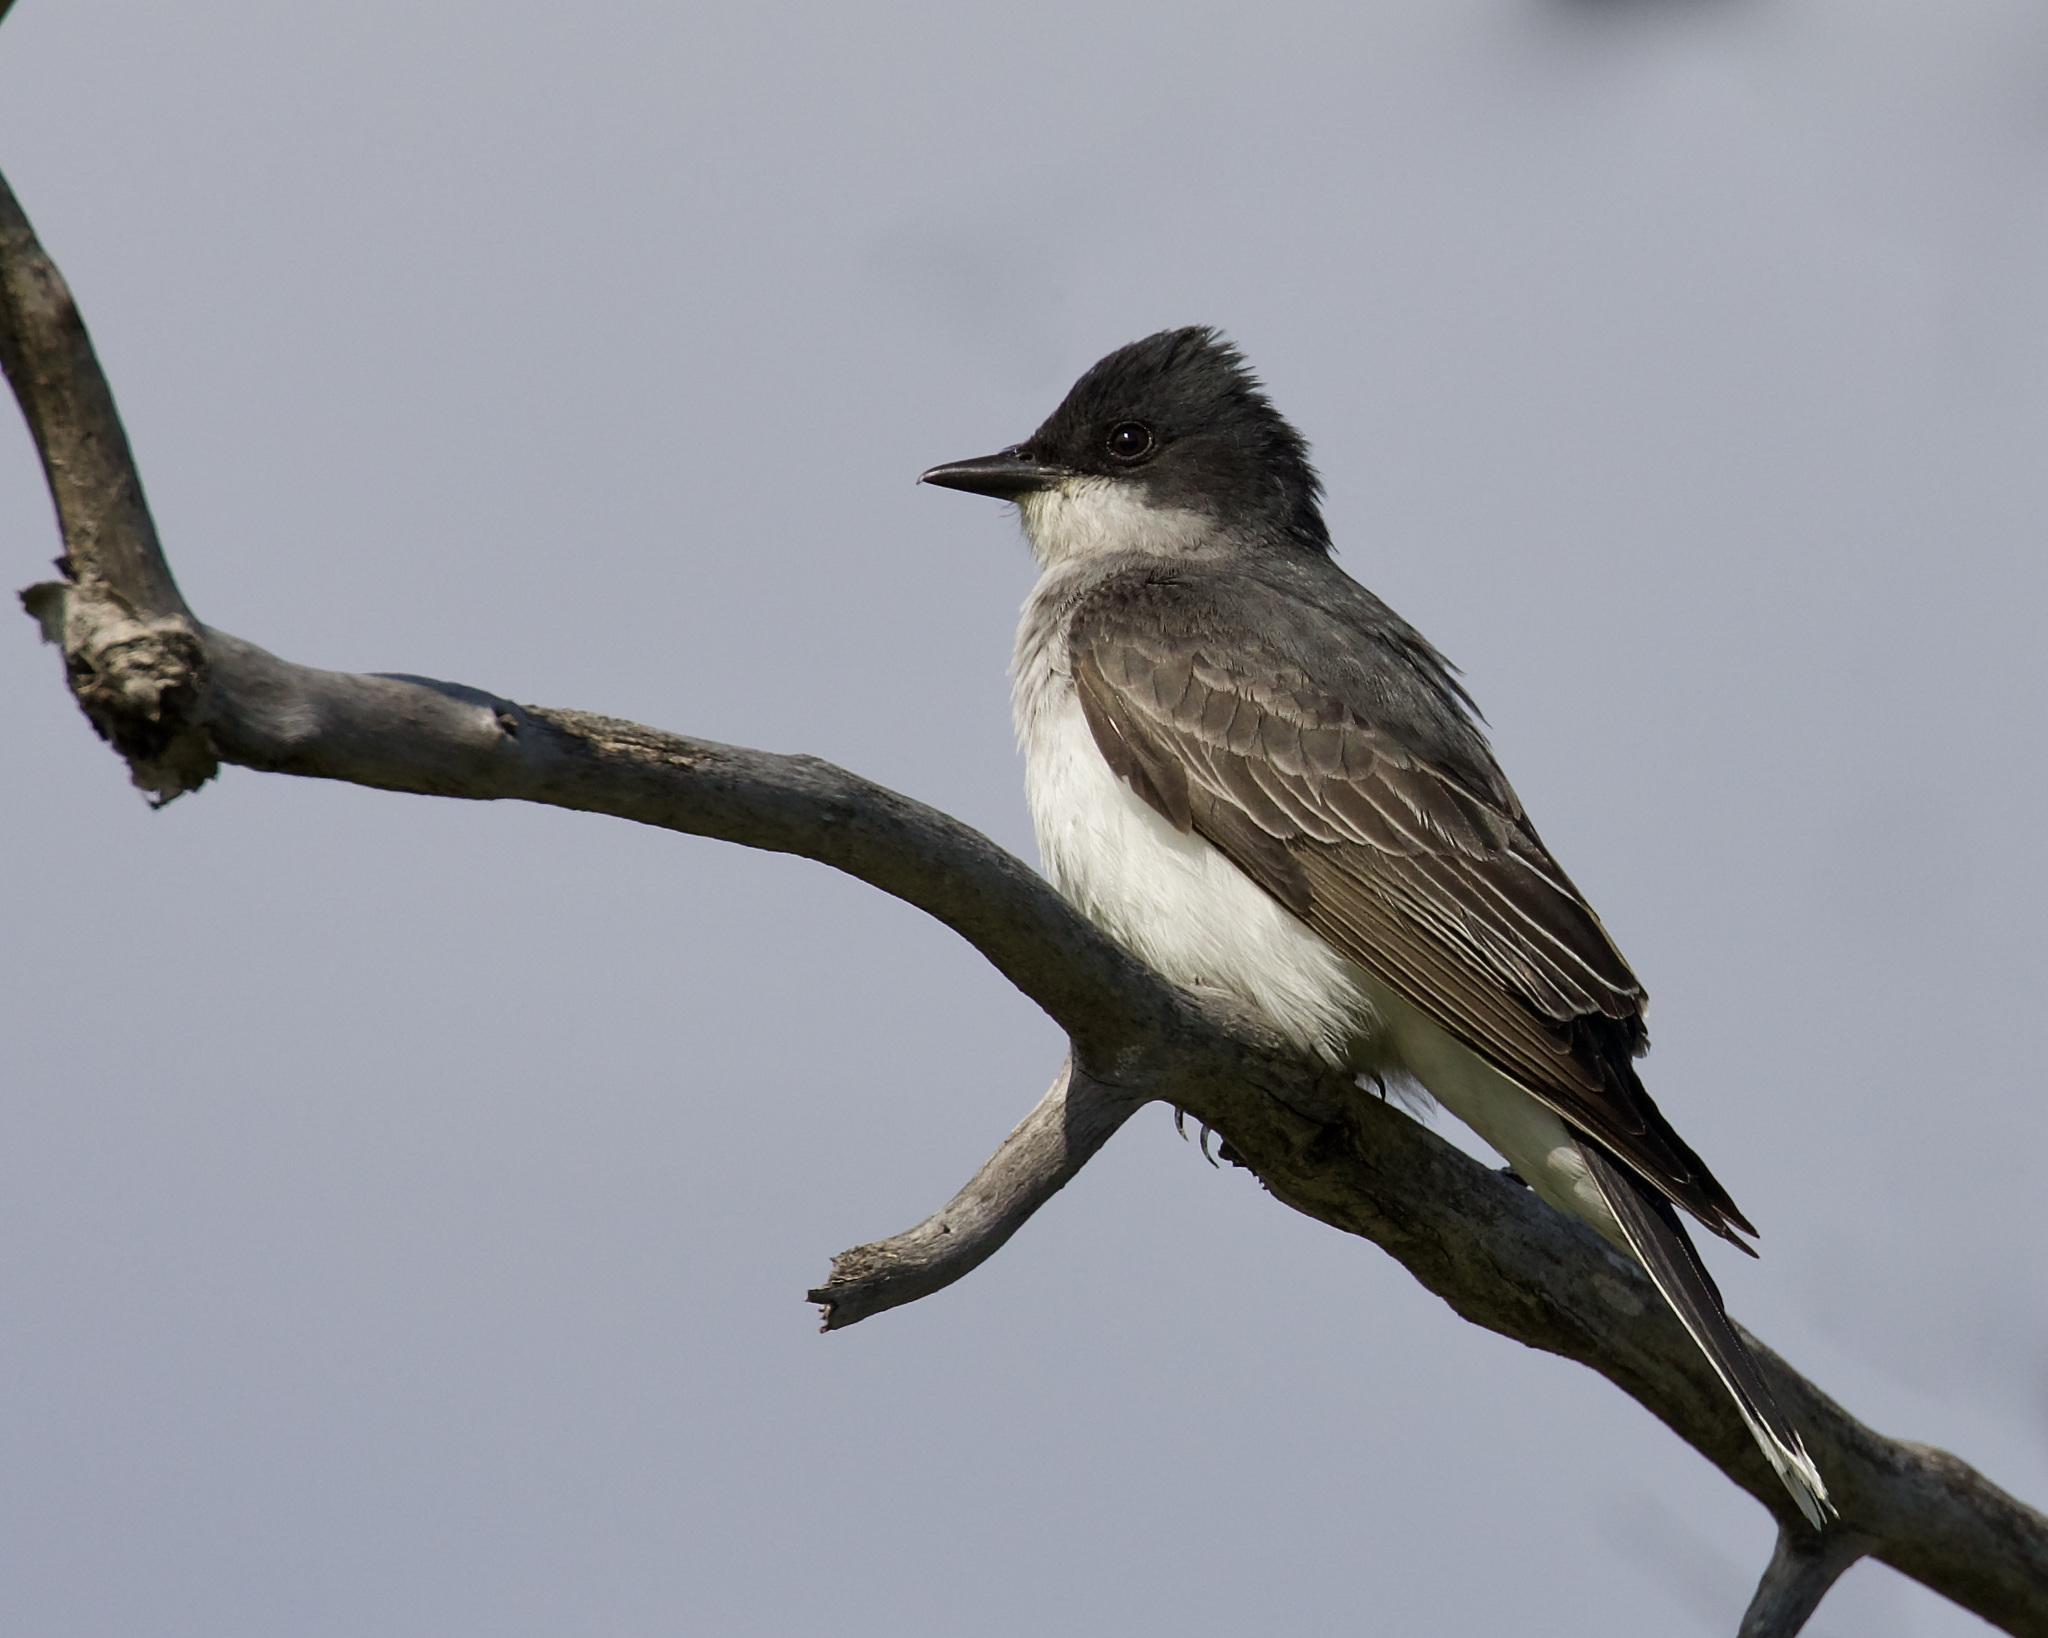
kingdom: Animalia
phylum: Chordata
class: Aves
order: Passeriformes
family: Tyrannidae
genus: Tyrannus
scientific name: Tyrannus tyrannus
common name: Eastern kingbird
